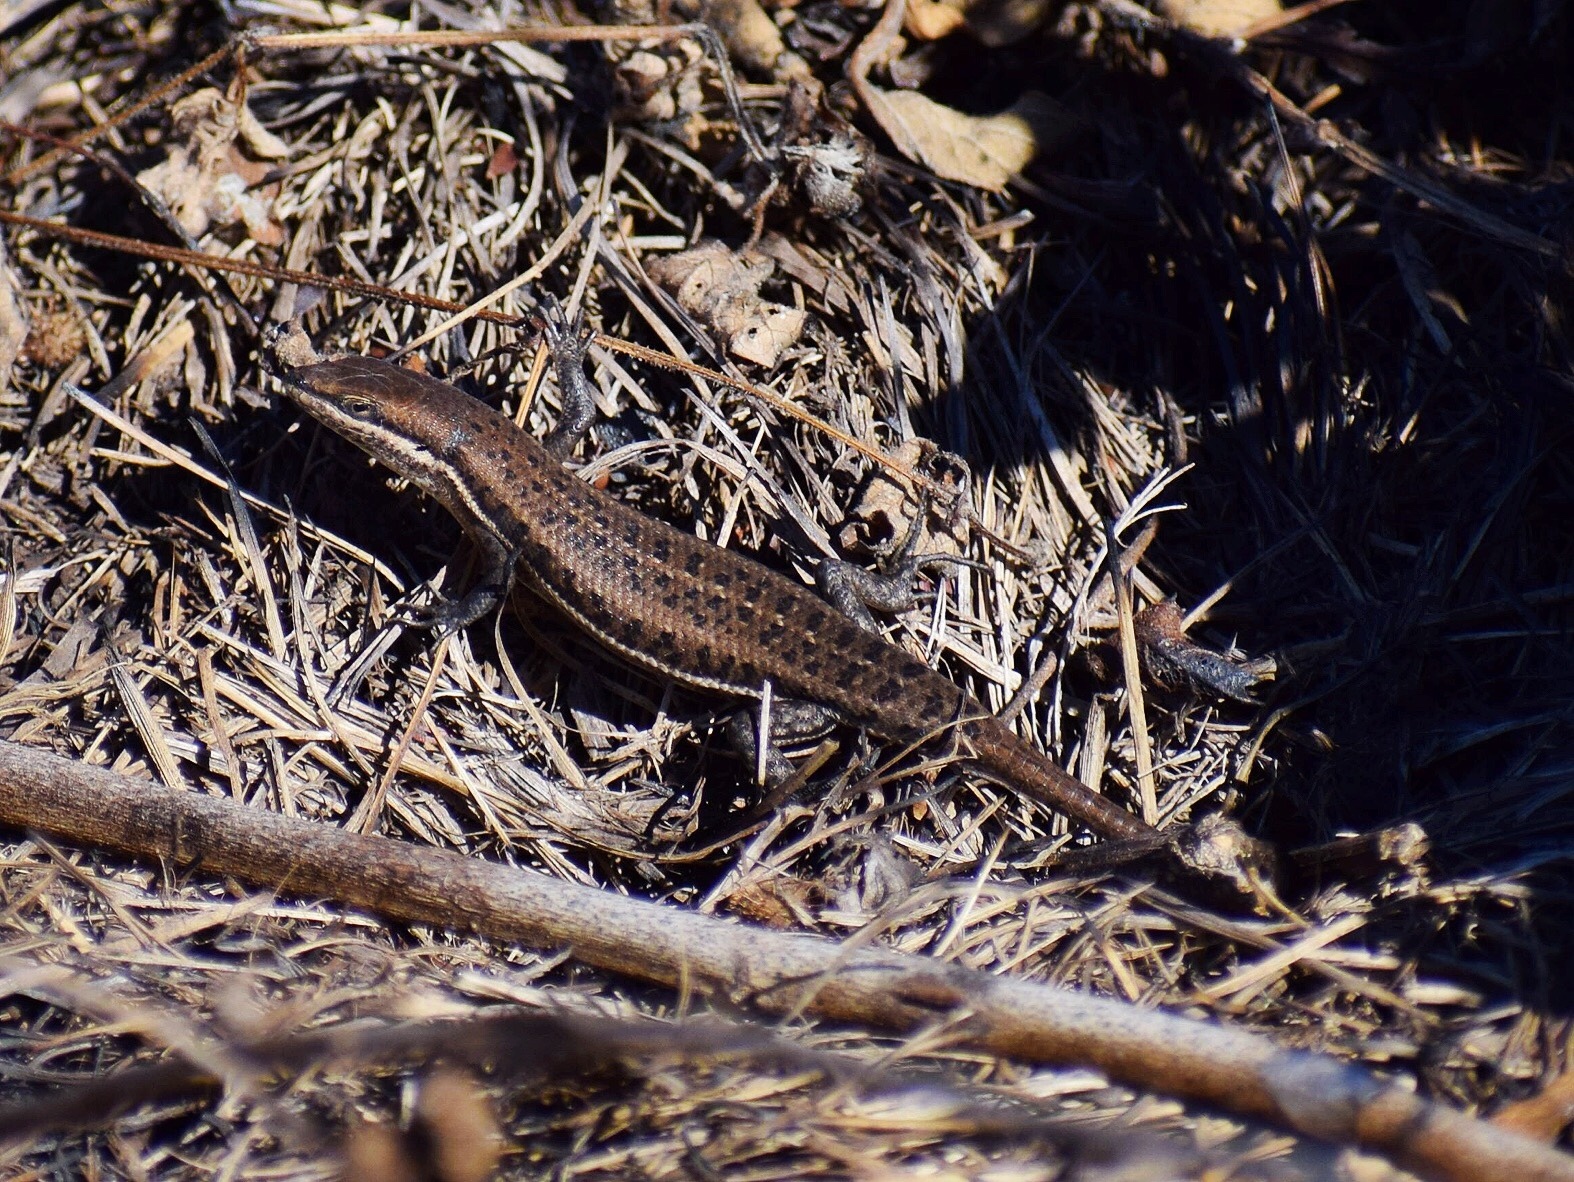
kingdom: Animalia
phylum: Chordata
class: Squamata
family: Scincidae
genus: Trachylepis
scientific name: Trachylepis varia
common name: Eastern variable skink
